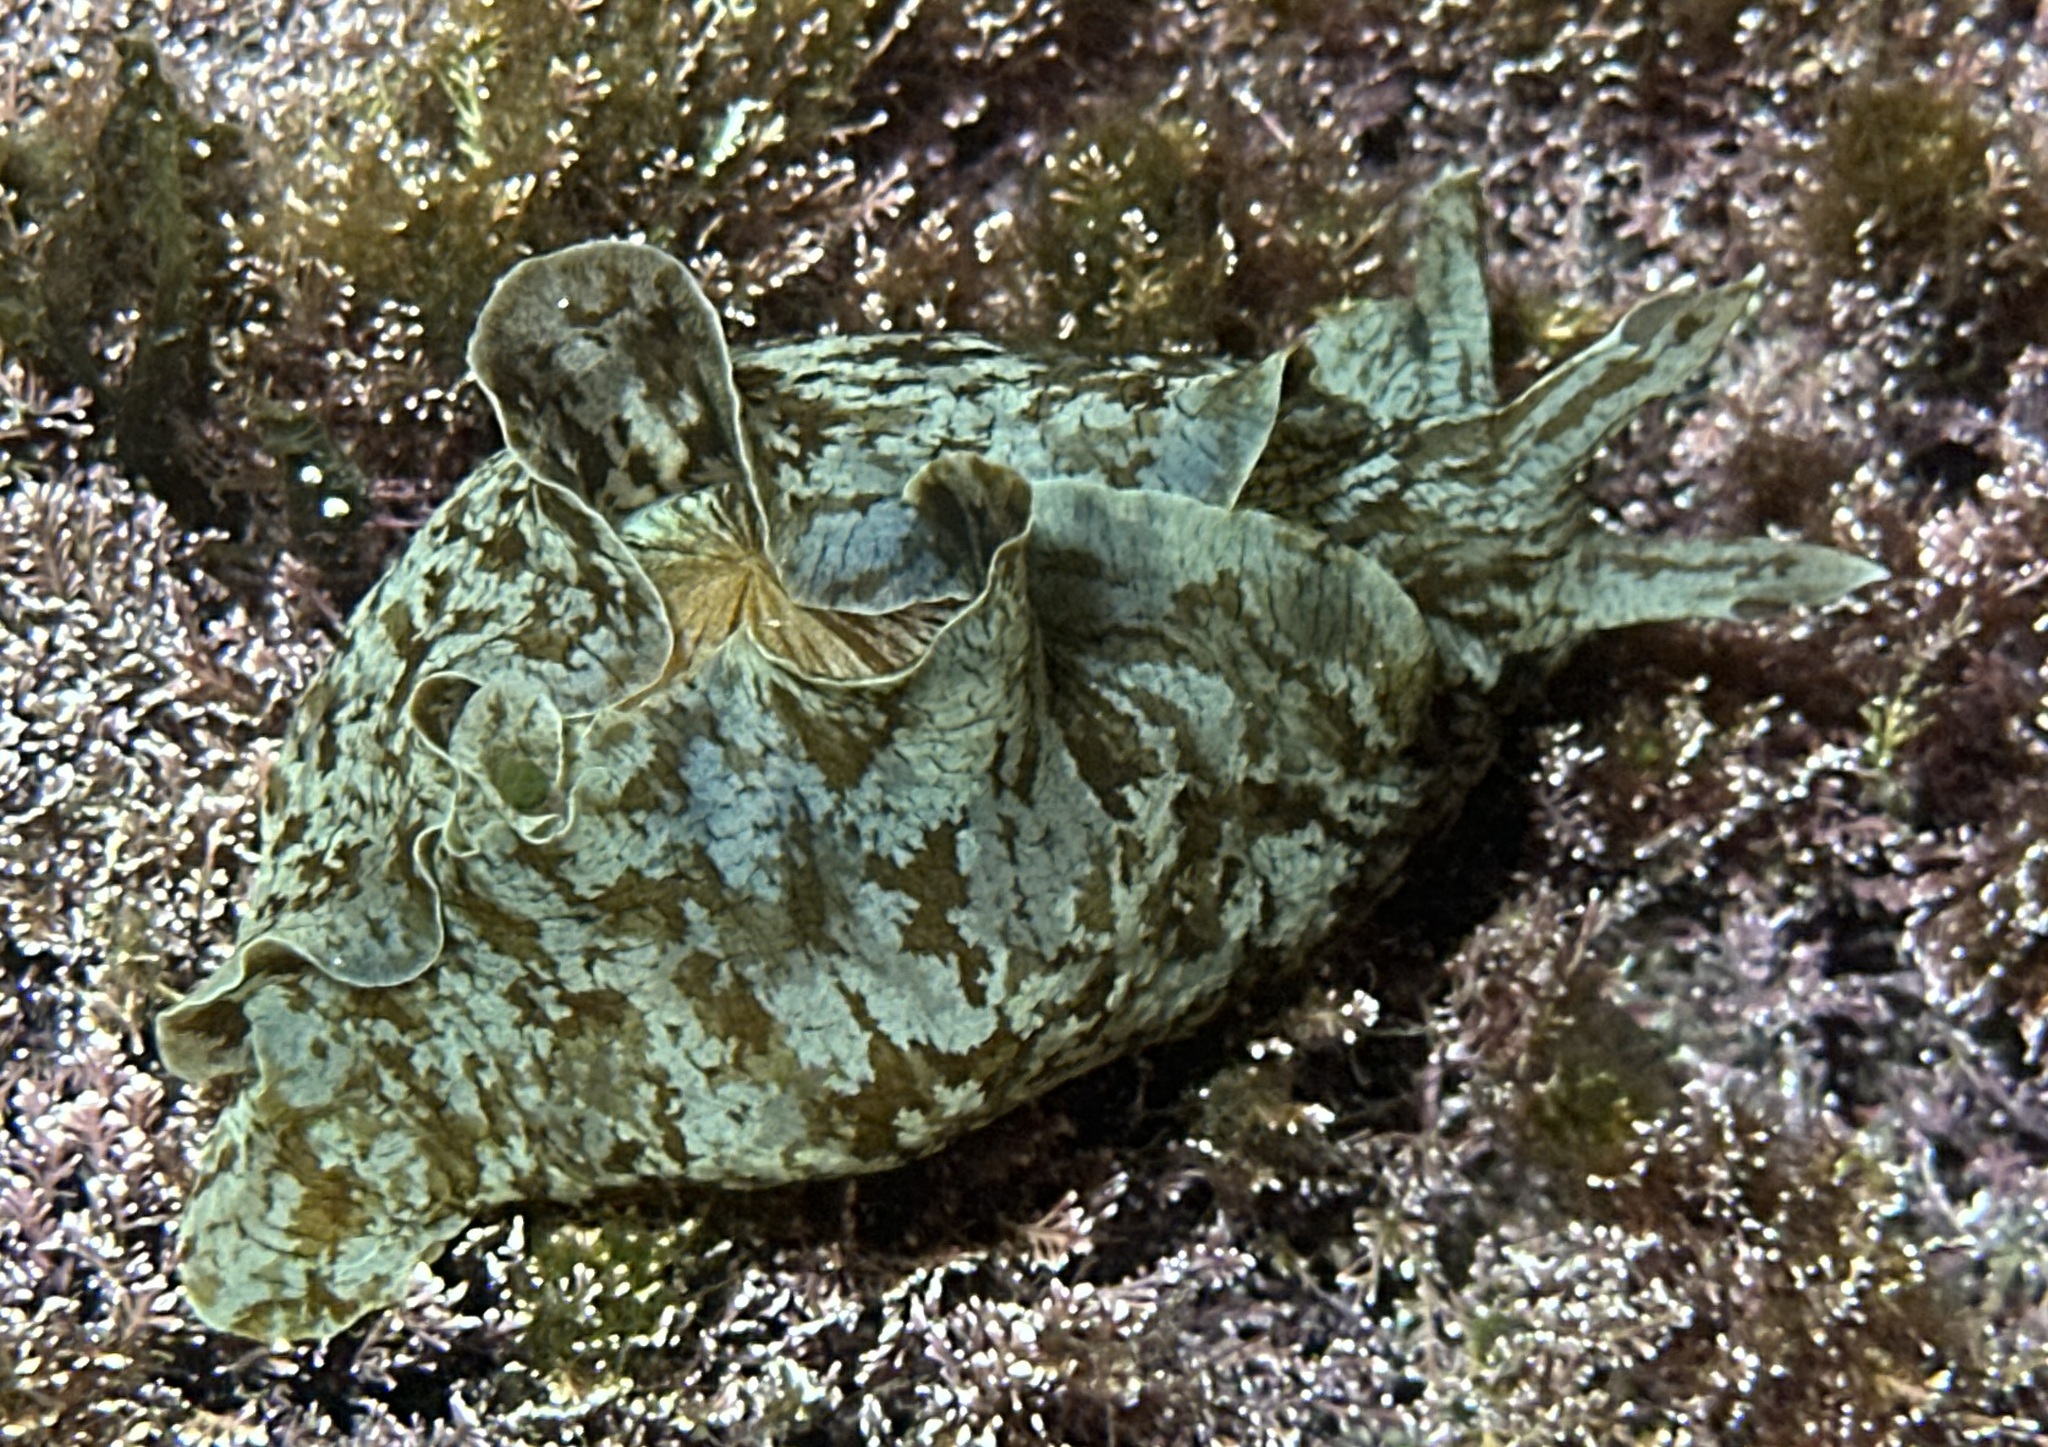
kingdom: Animalia
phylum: Mollusca
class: Gastropoda
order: Aplysiida
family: Aplysiidae
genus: Aplysia
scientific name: Aplysia sydneyensis
